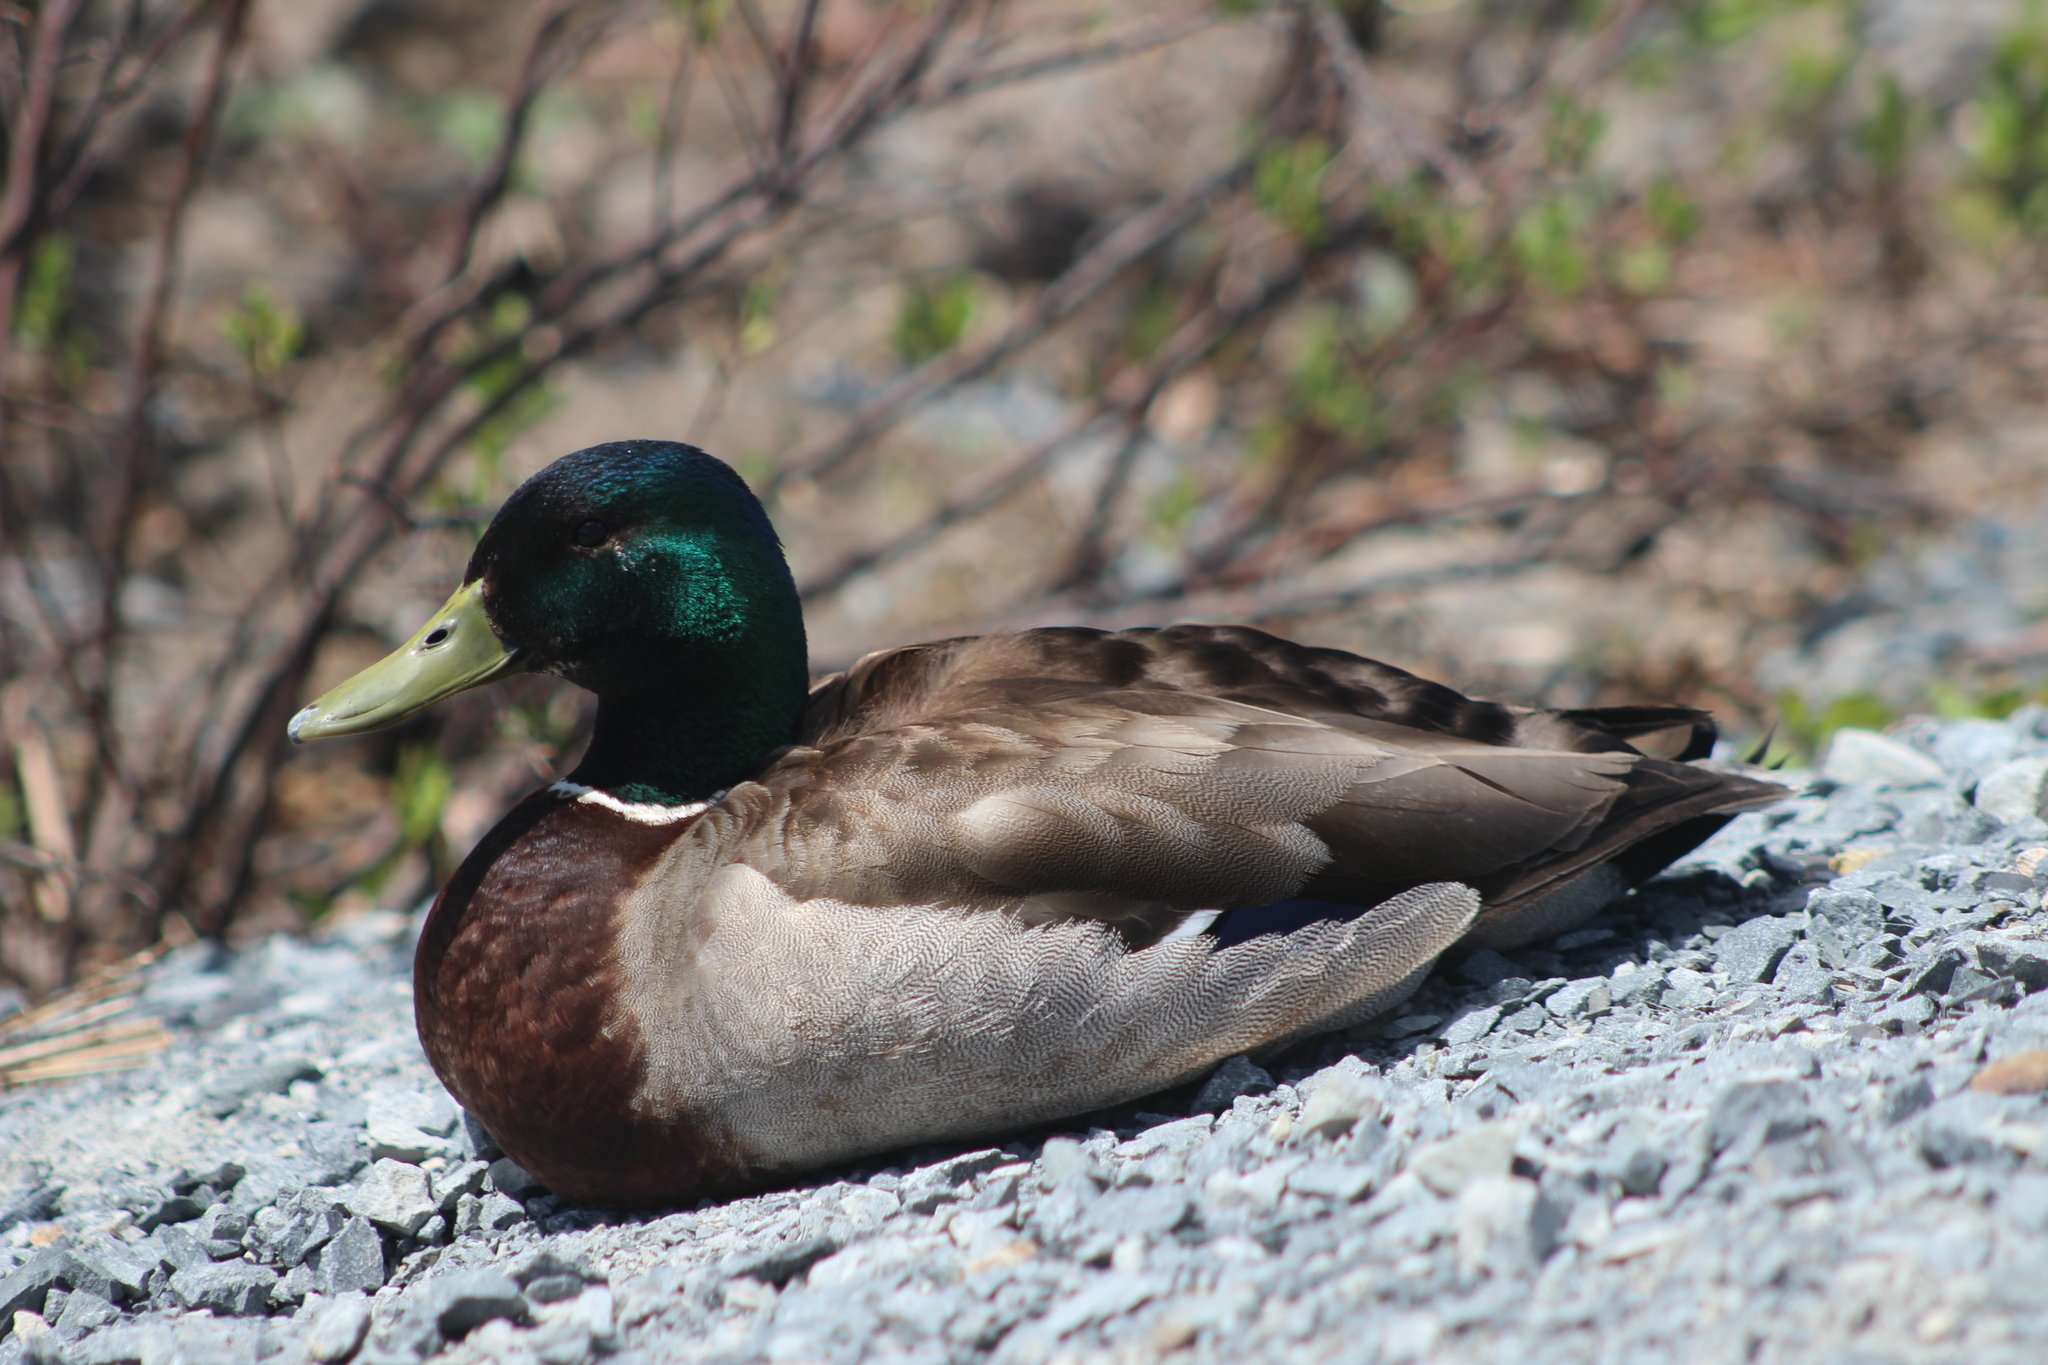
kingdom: Animalia
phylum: Chordata
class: Aves
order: Anseriformes
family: Anatidae
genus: Anas
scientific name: Anas platyrhynchos
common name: Mallard
